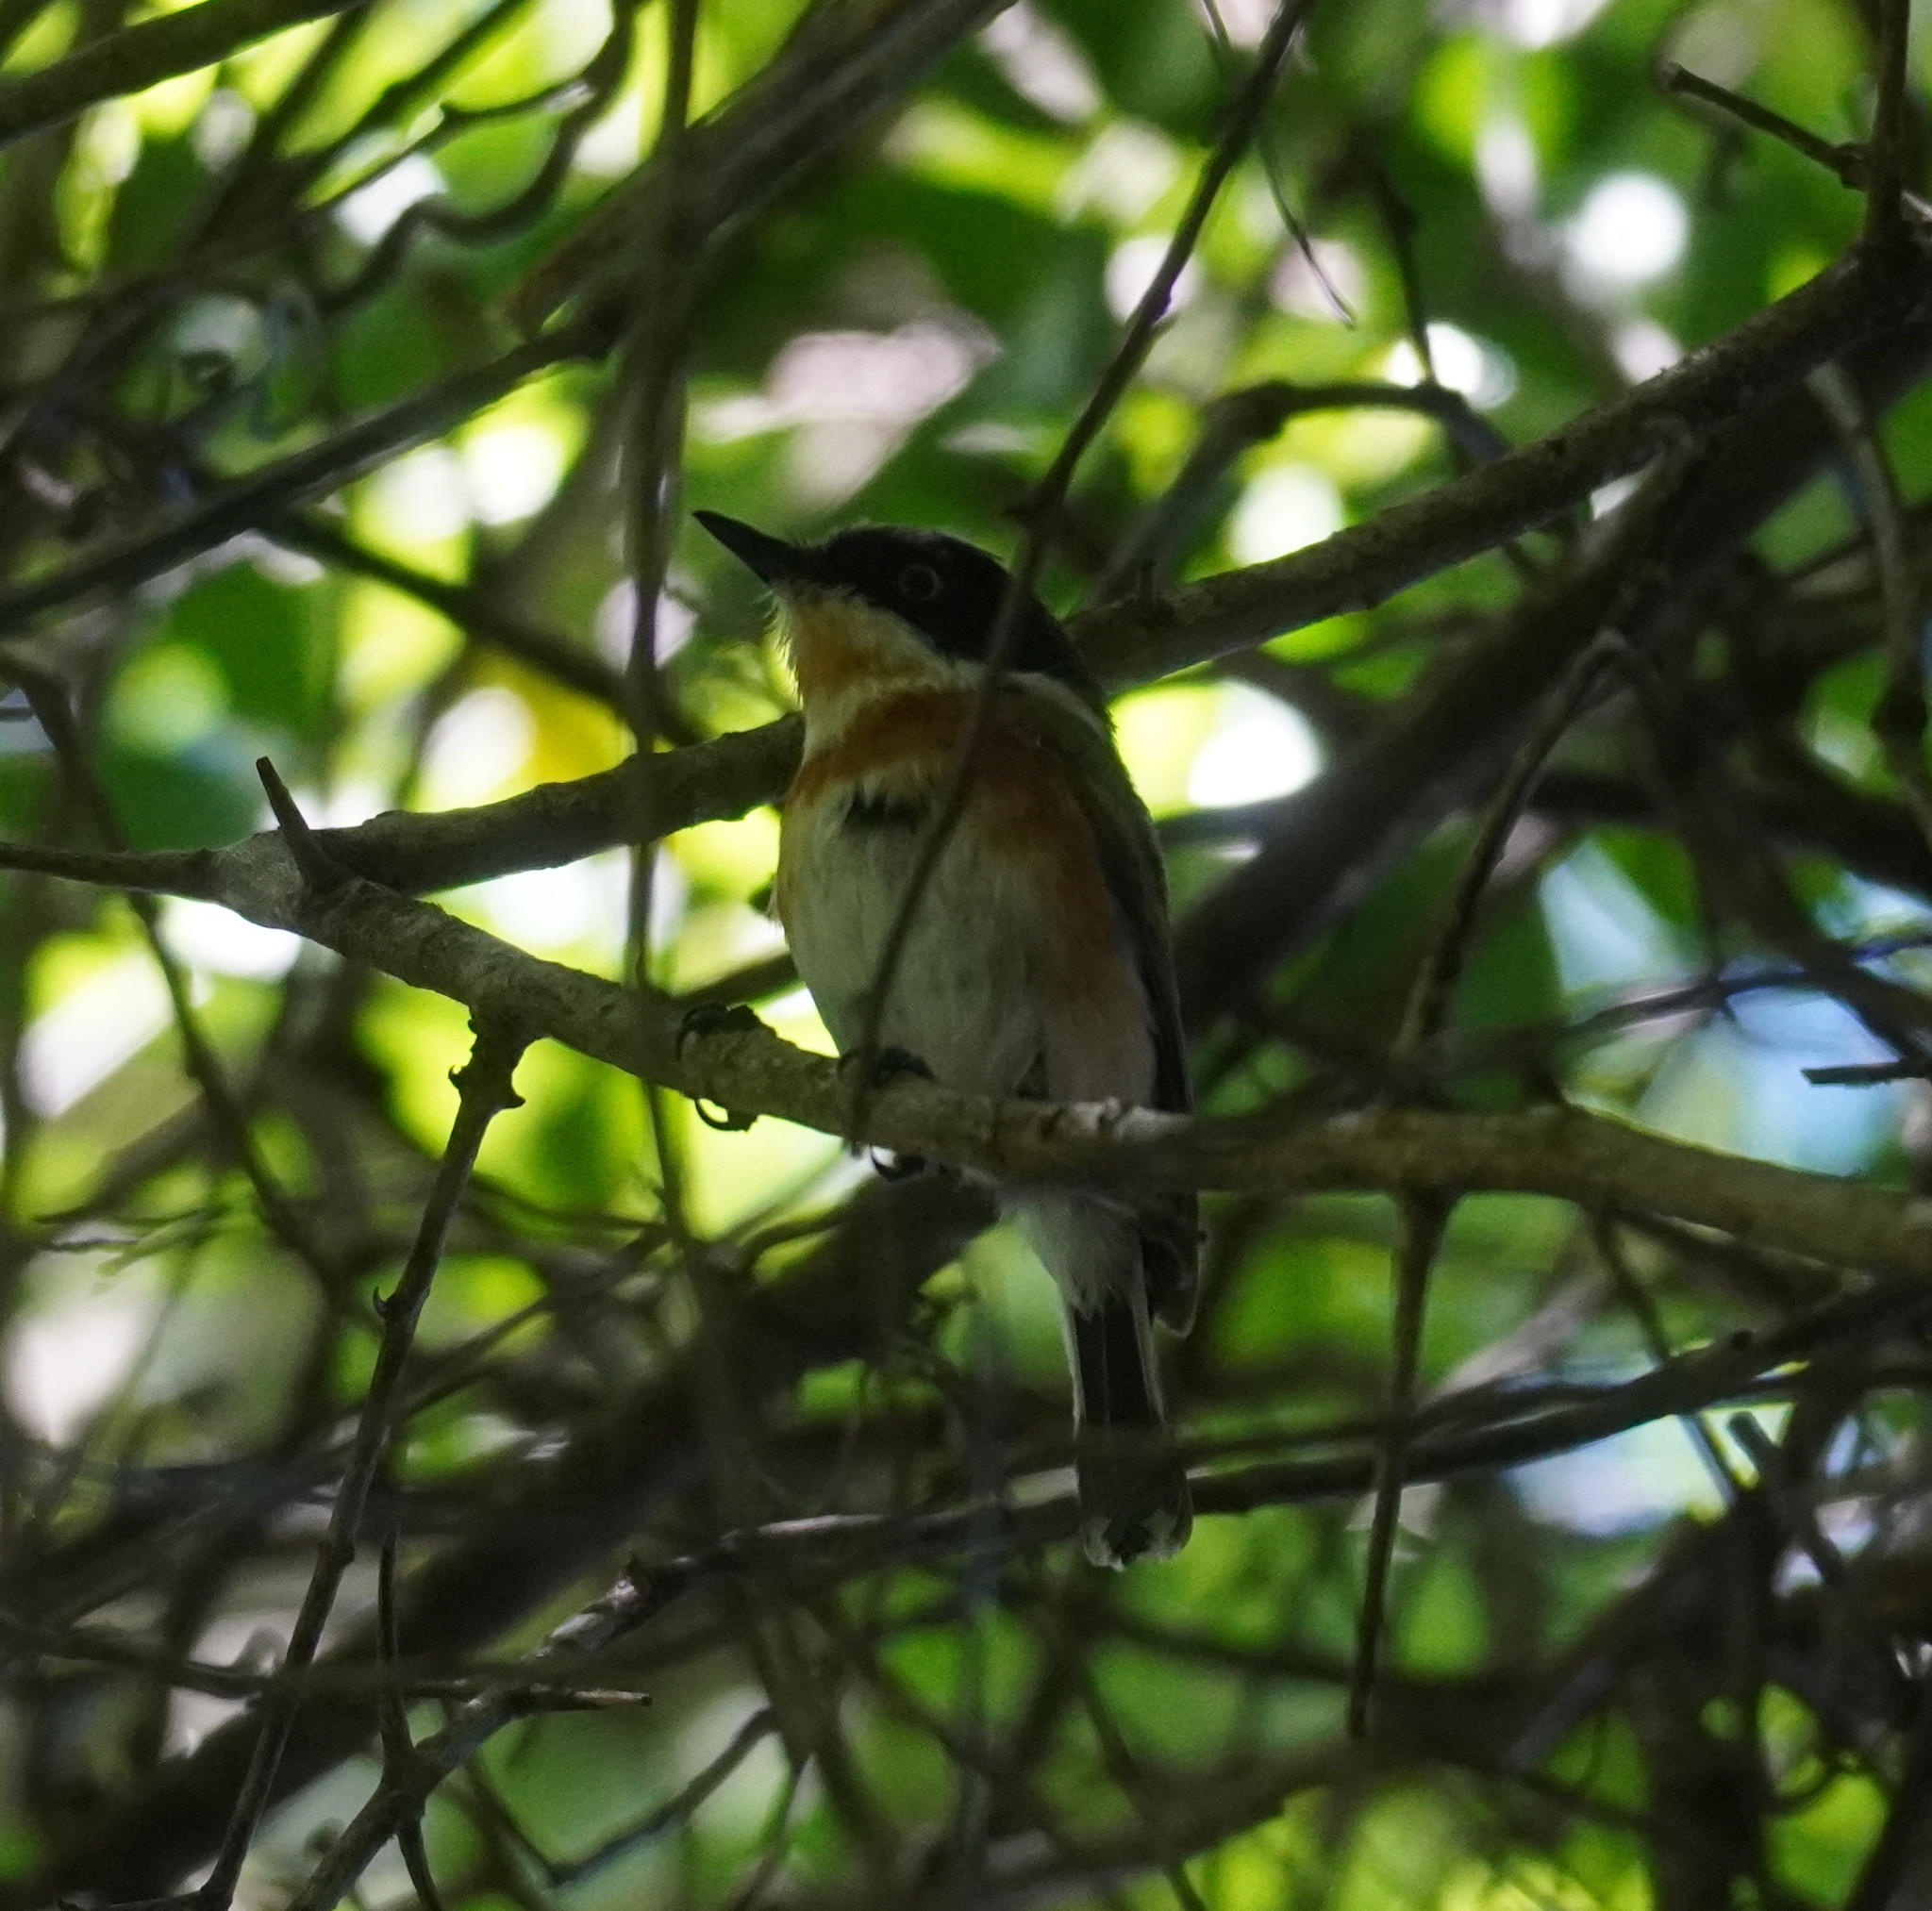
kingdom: Animalia
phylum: Chordata
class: Aves
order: Passeriformes
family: Platysteiridae
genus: Batis
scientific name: Batis capensis
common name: Cape batis
